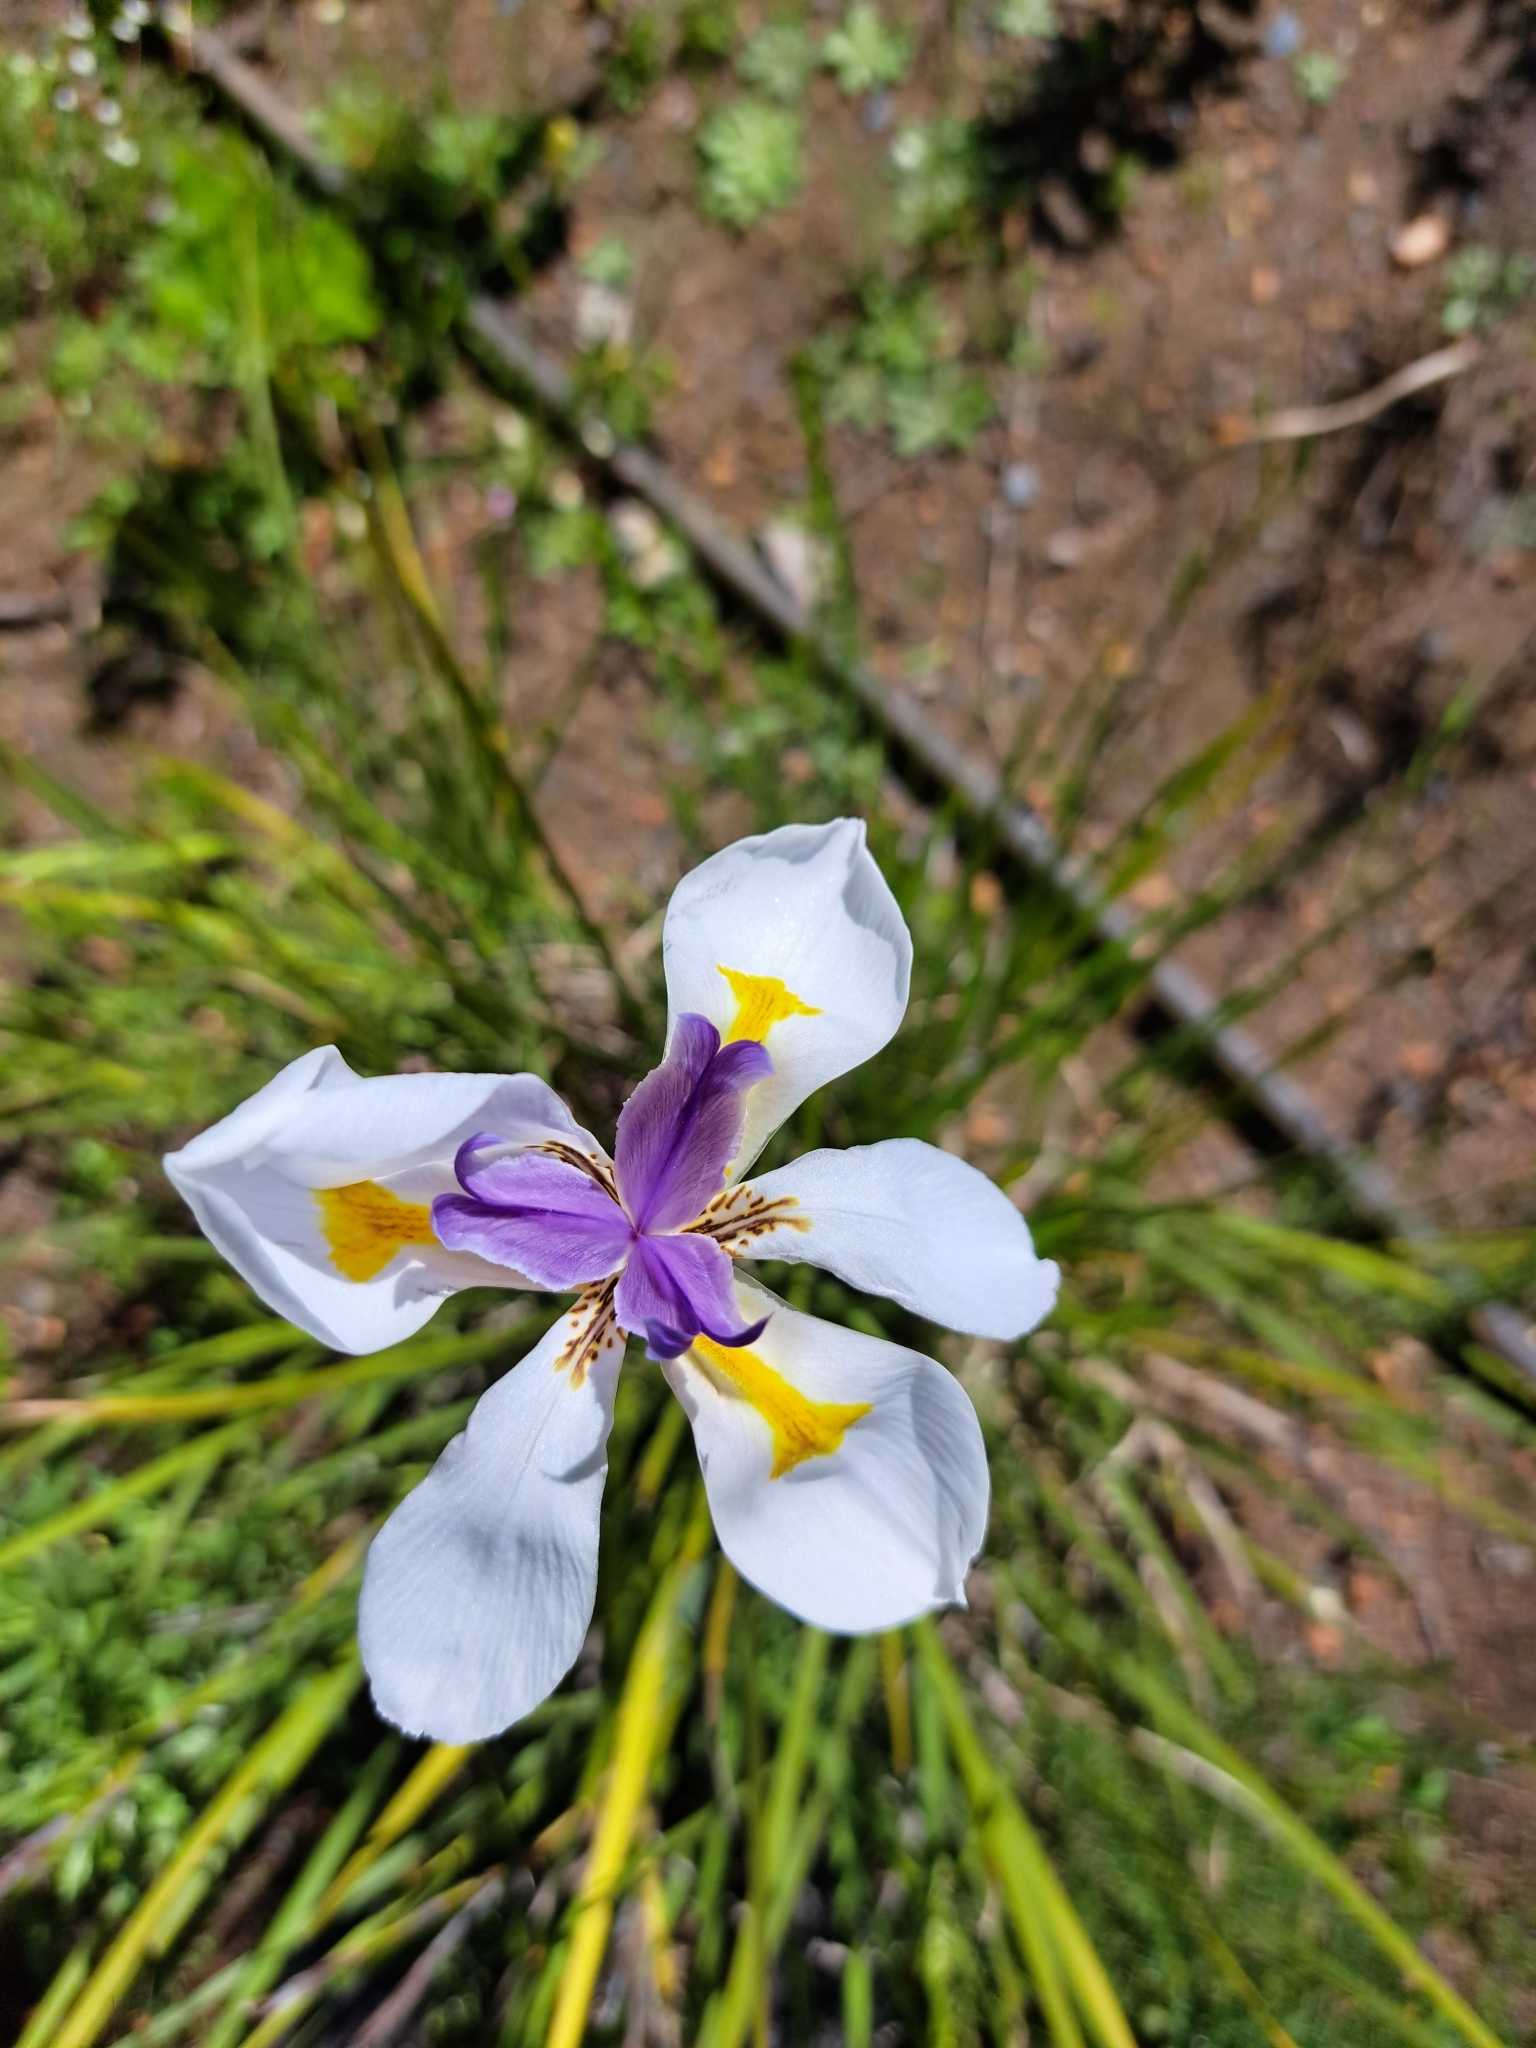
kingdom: Plantae
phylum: Tracheophyta
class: Liliopsida
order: Asparagales
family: Iridaceae
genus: Dietes
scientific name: Dietes grandiflora
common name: Wild iris
